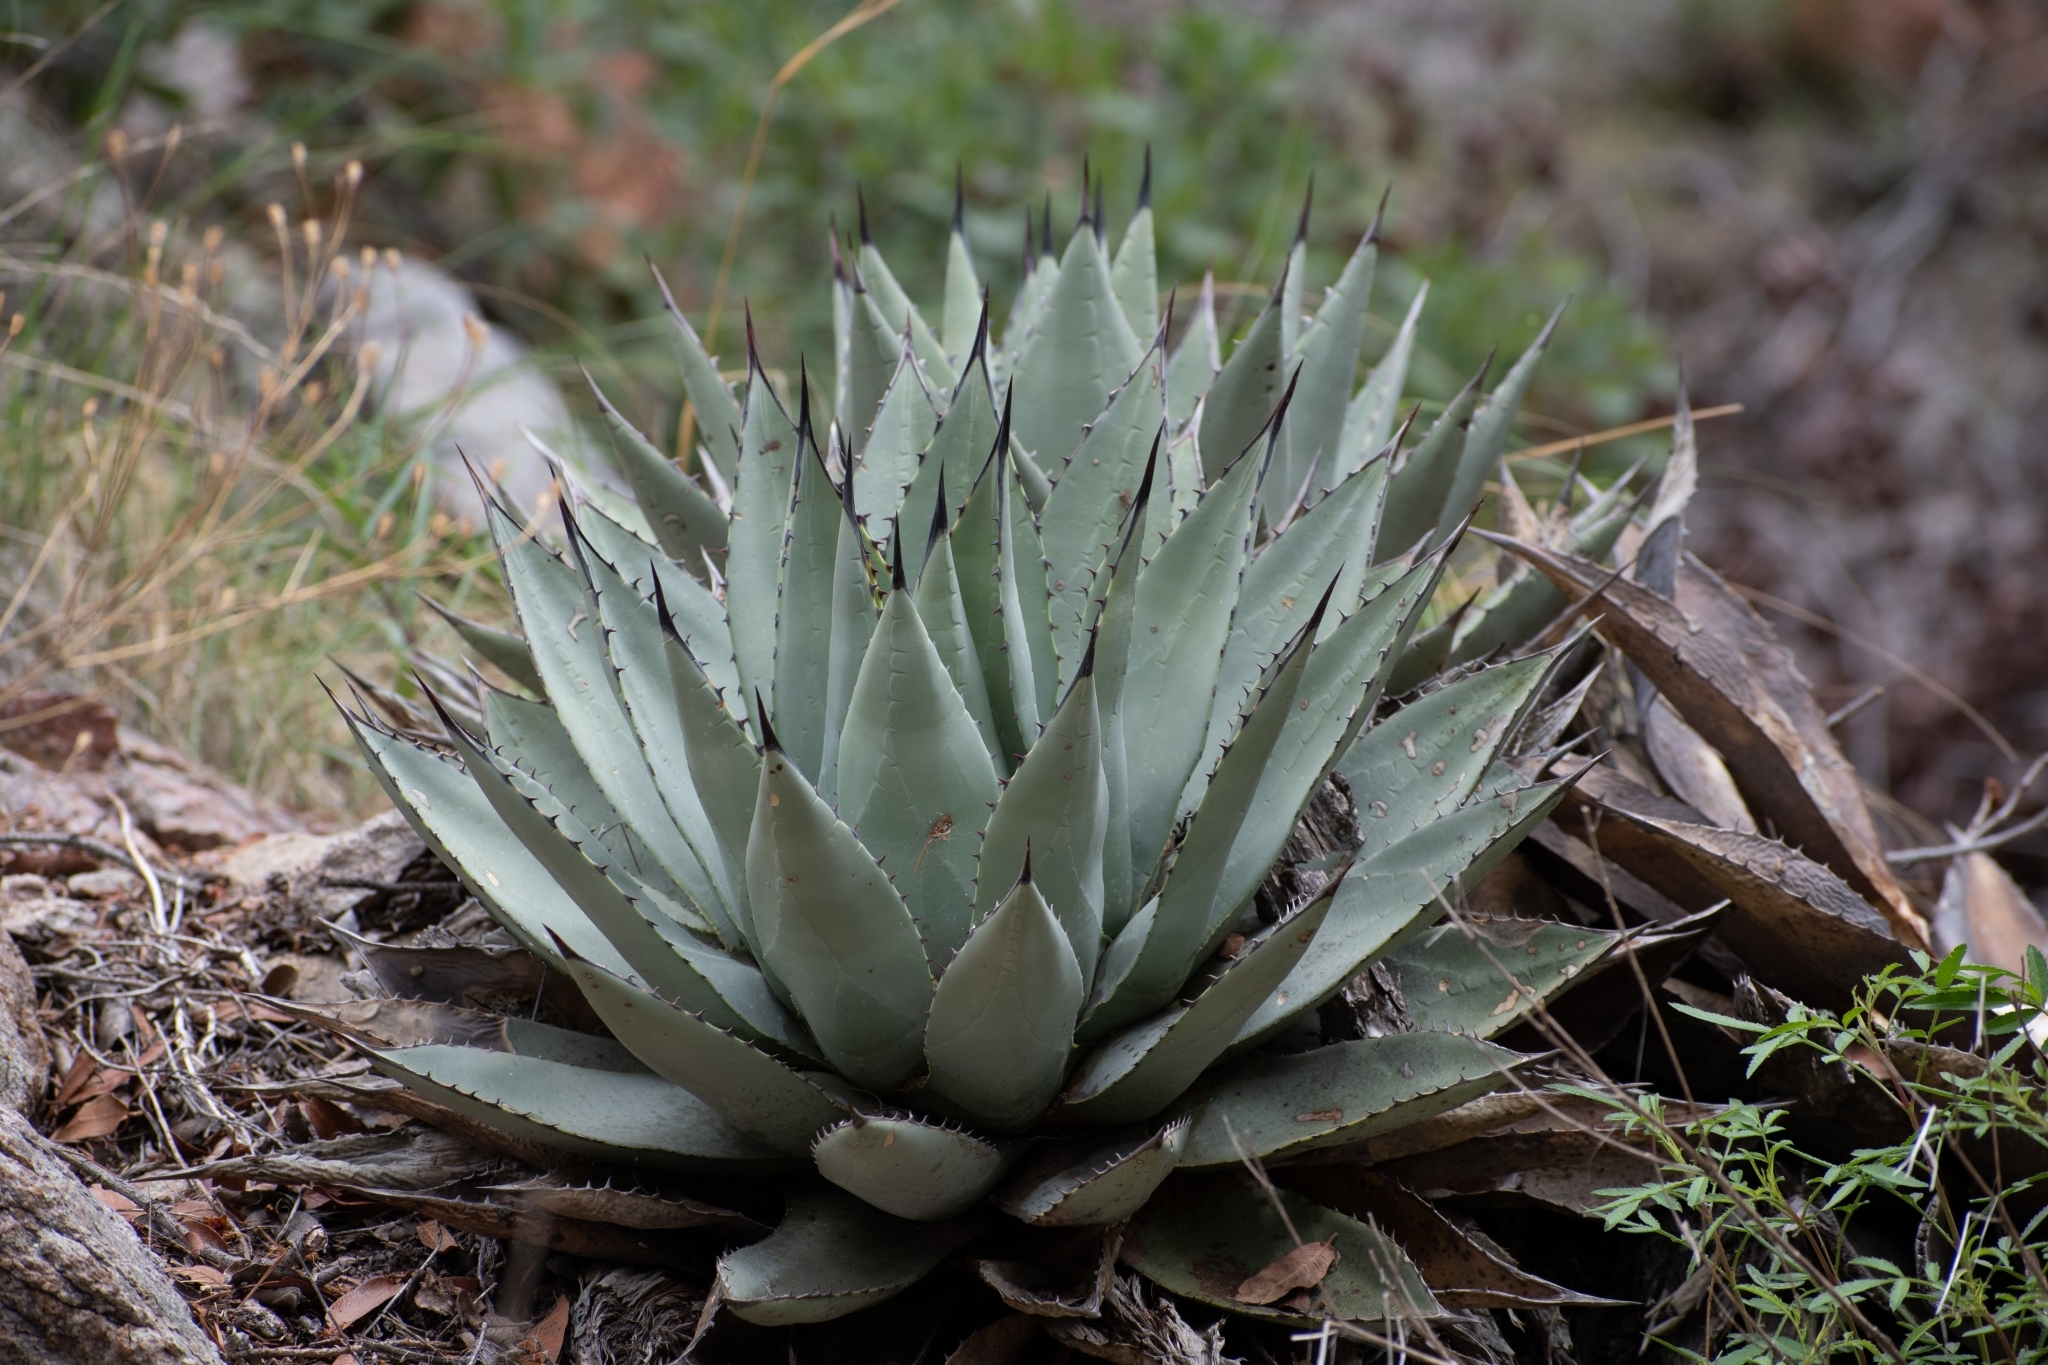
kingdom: Plantae
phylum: Tracheophyta
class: Liliopsida
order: Asparagales
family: Asparagaceae
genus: Agave
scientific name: Agave parryi
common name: Parry's agave
